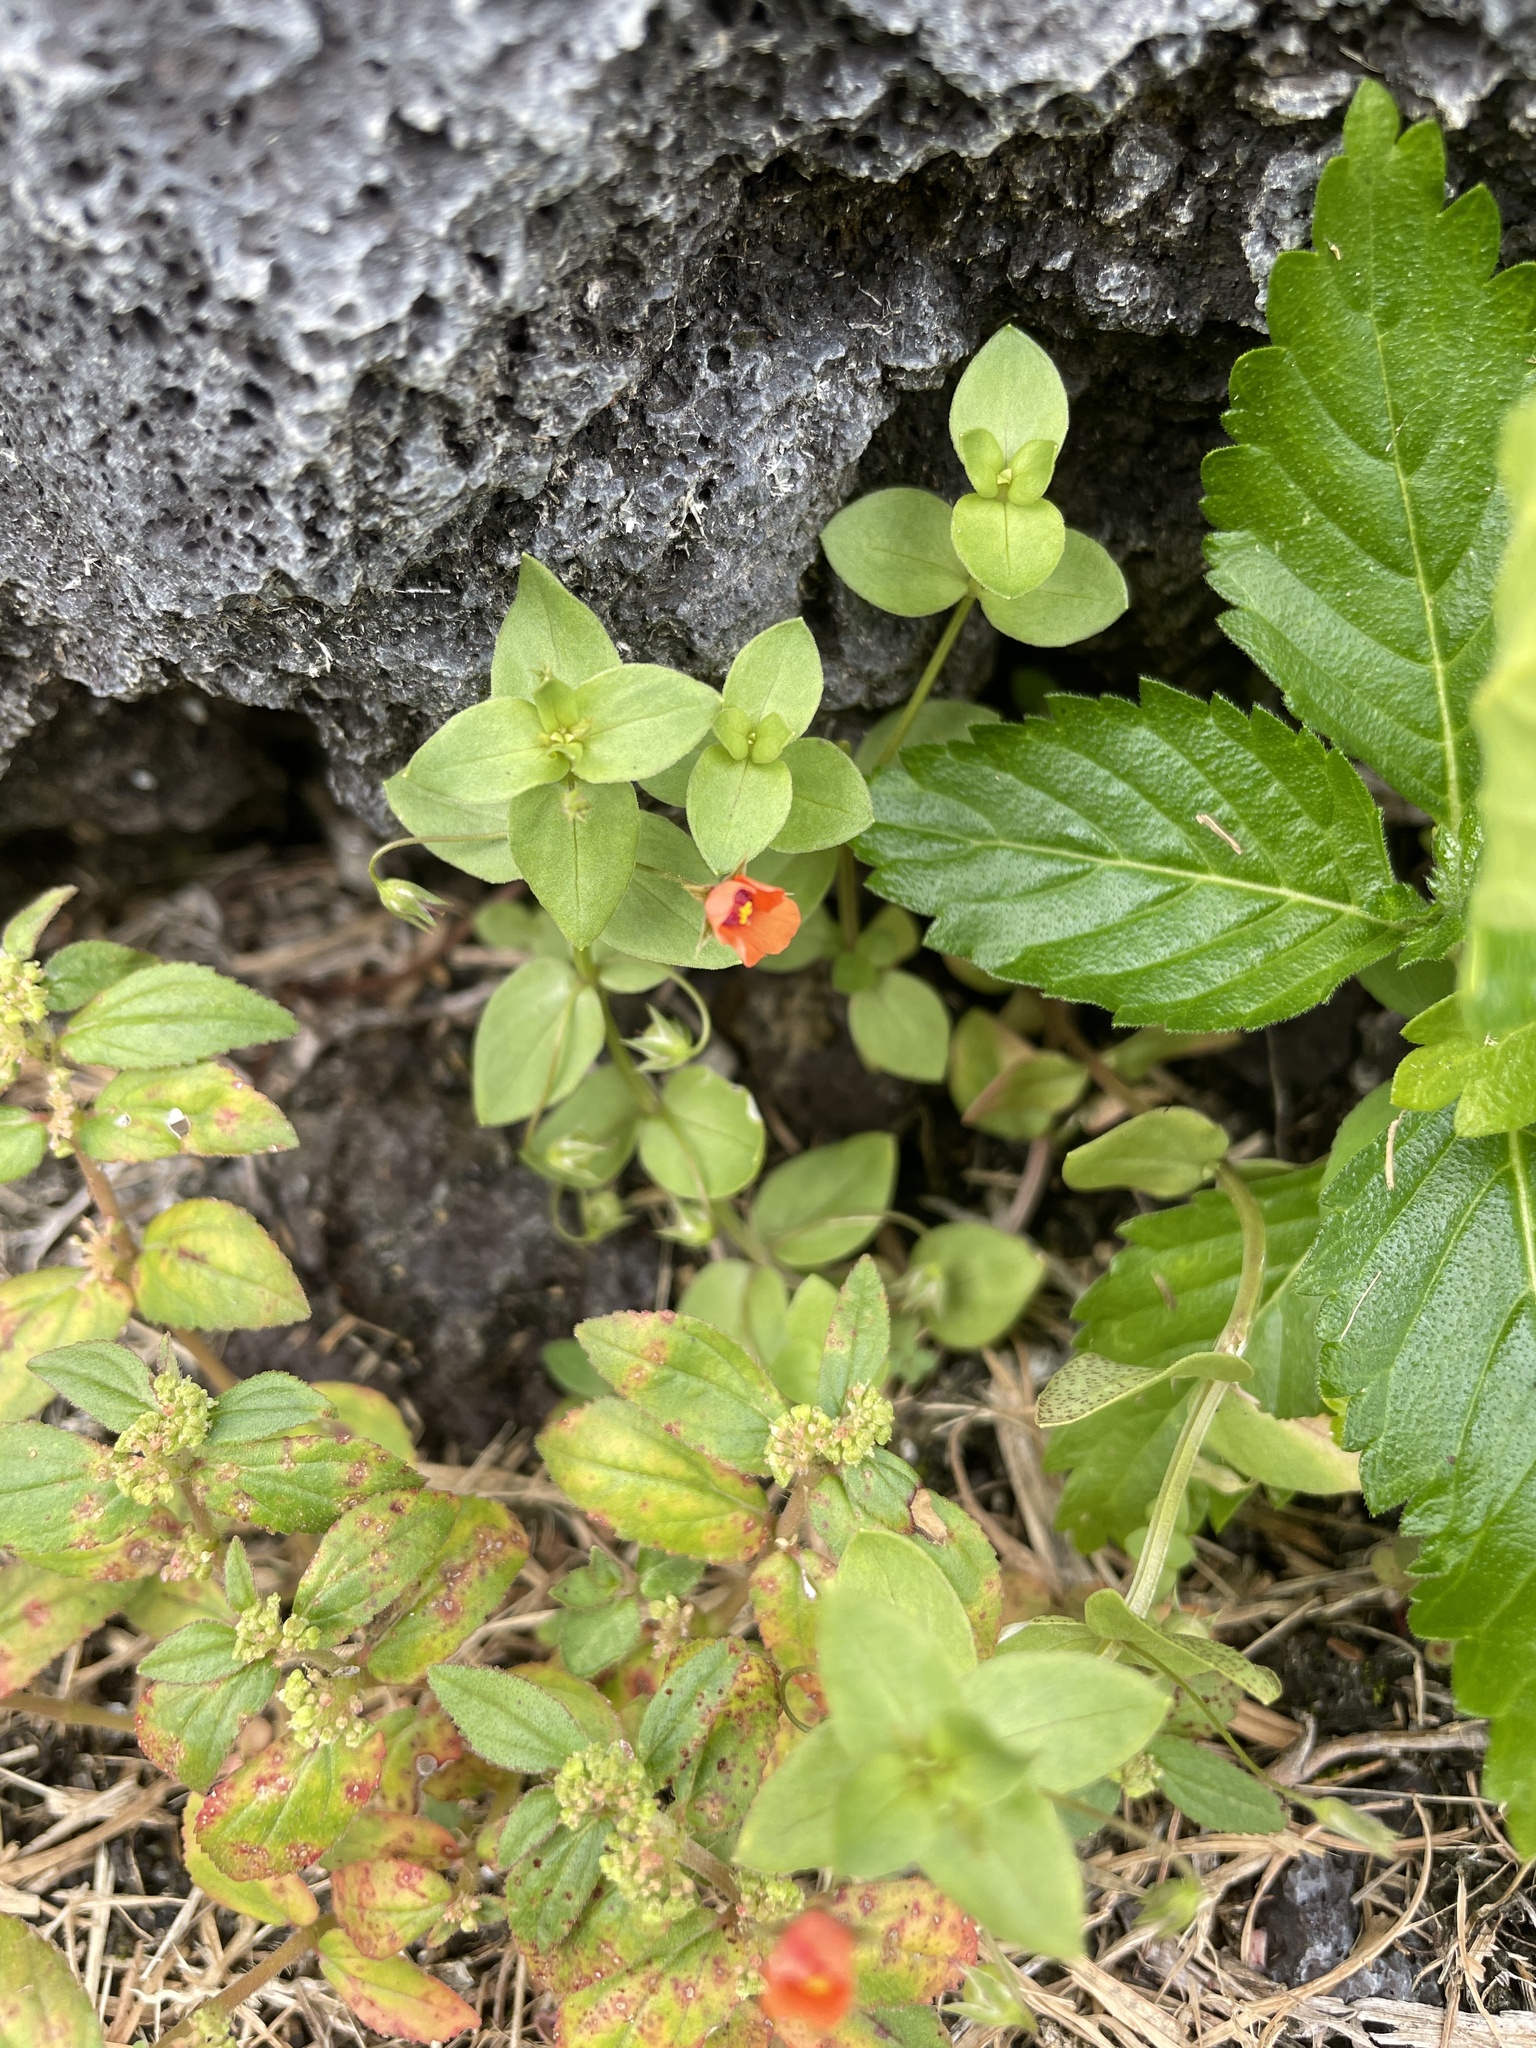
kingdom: Plantae
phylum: Tracheophyta
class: Magnoliopsida
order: Ericales
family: Primulaceae
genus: Lysimachia
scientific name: Lysimachia arvensis
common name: Scarlet pimpernel
